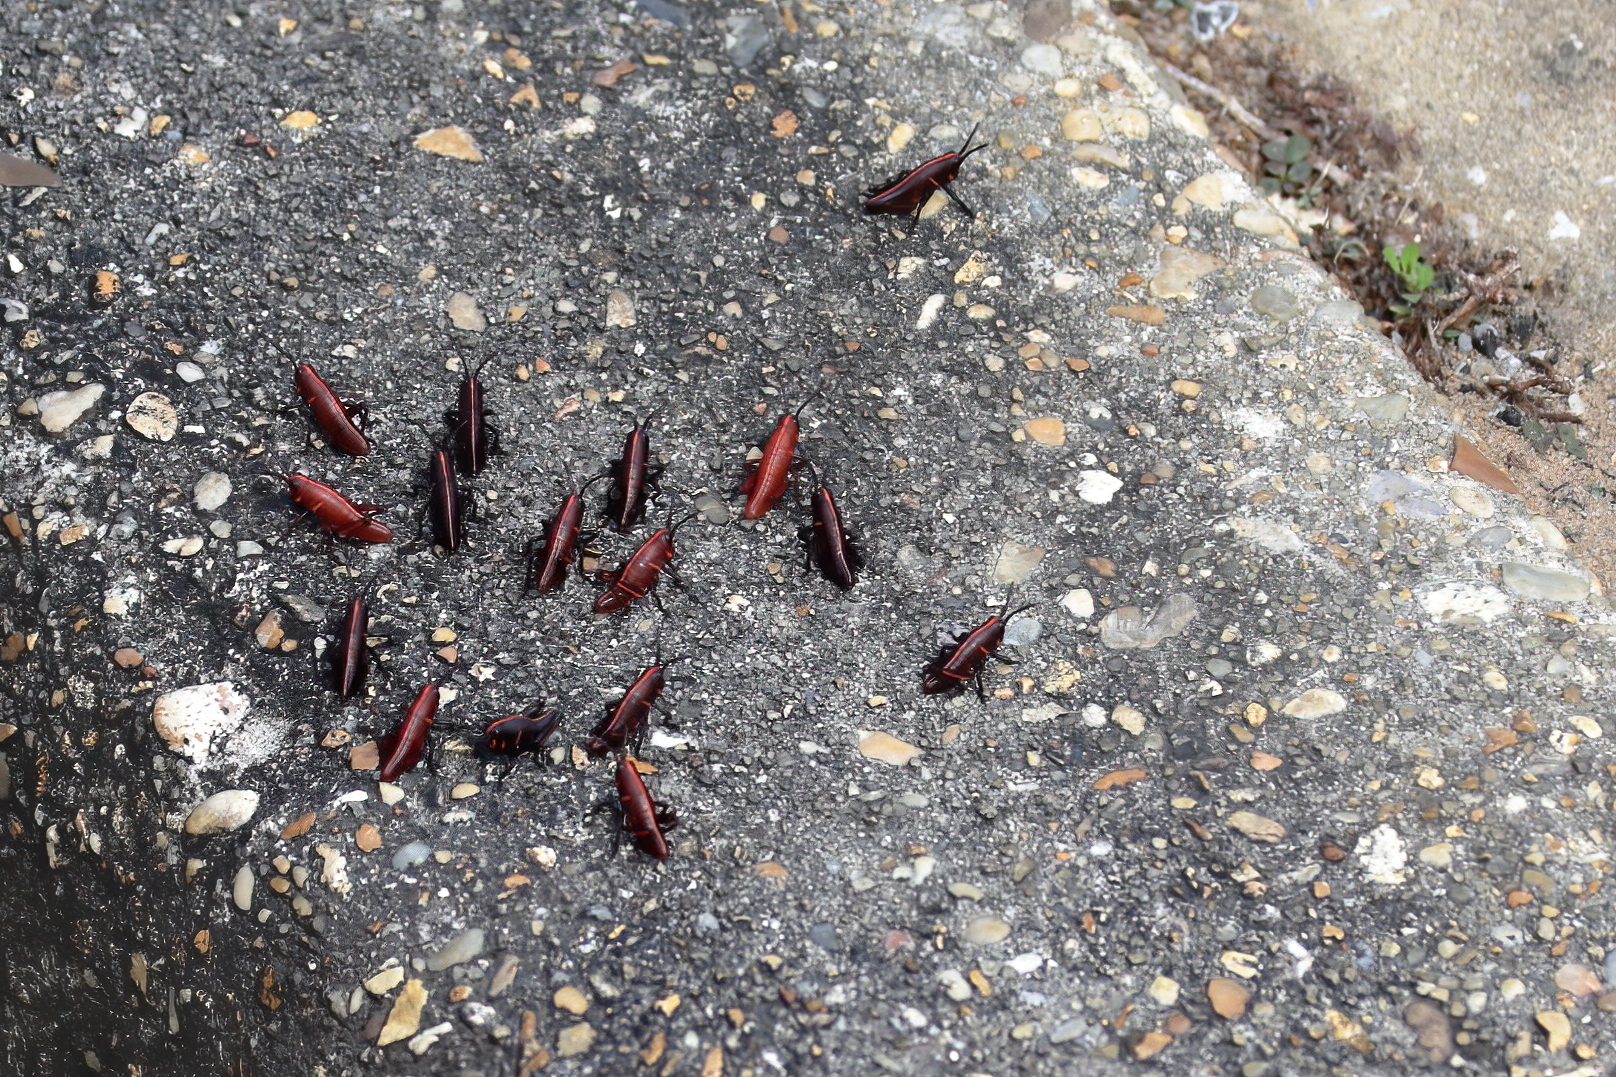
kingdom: Animalia
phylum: Arthropoda
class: Insecta
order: Orthoptera
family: Romaleidae
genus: Romalea
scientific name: Romalea microptera
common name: Eastern lubber grasshopper
